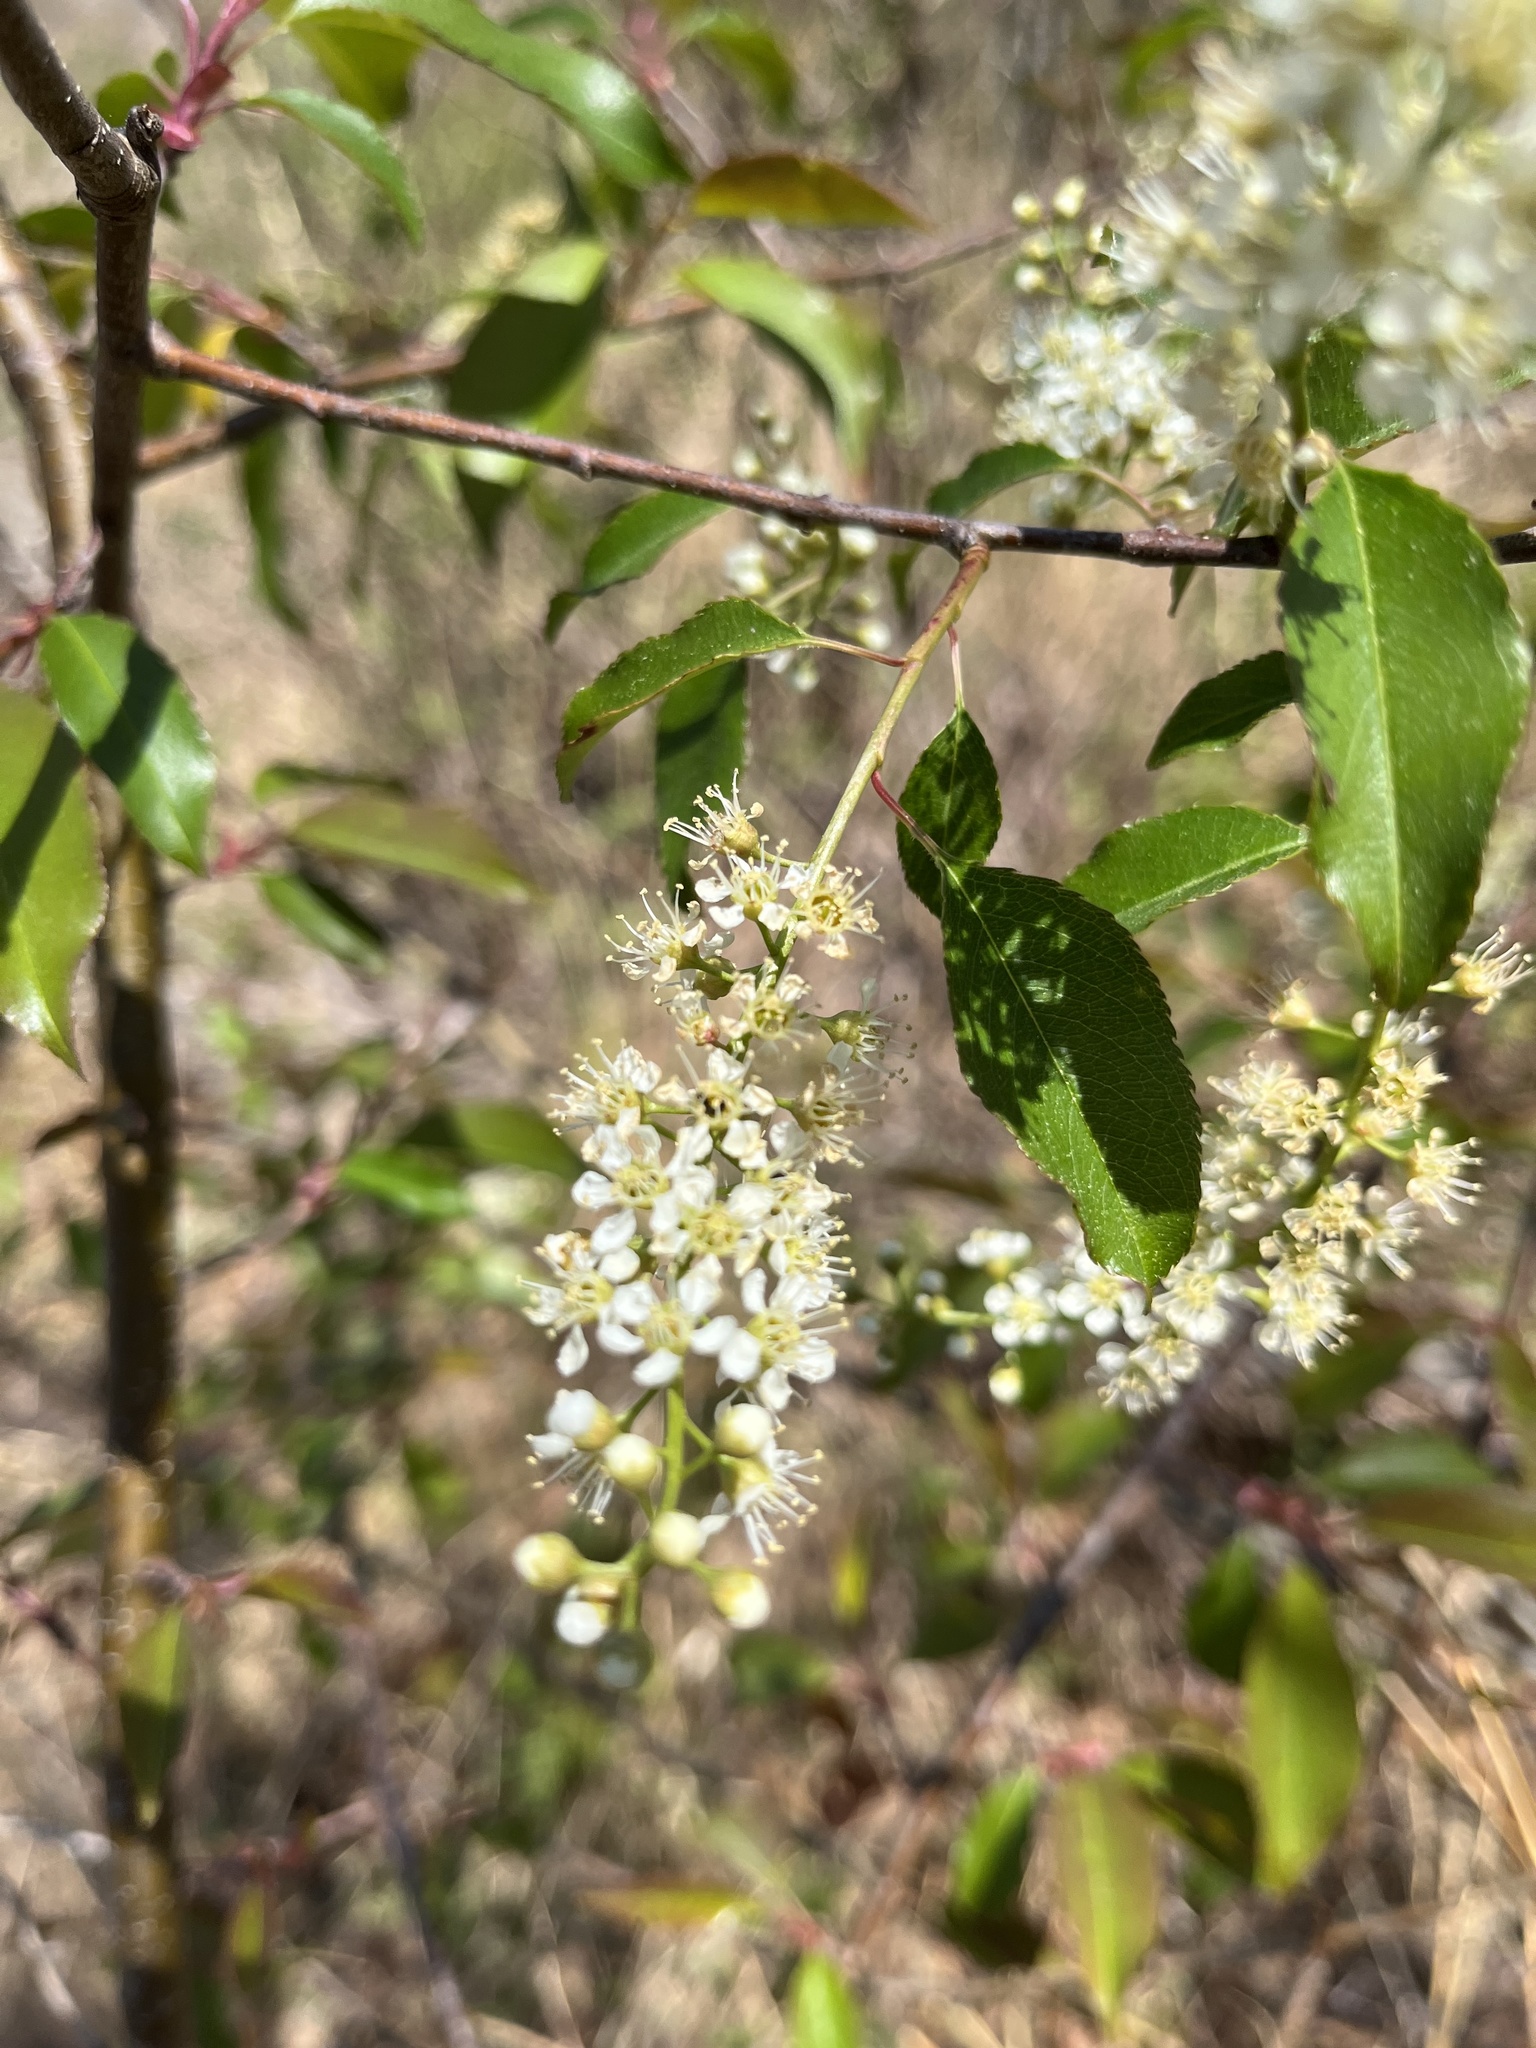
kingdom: Plantae
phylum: Tracheophyta
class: Magnoliopsida
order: Rosales
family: Rosaceae
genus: Prunus
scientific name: Prunus serotina
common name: Black cherry
